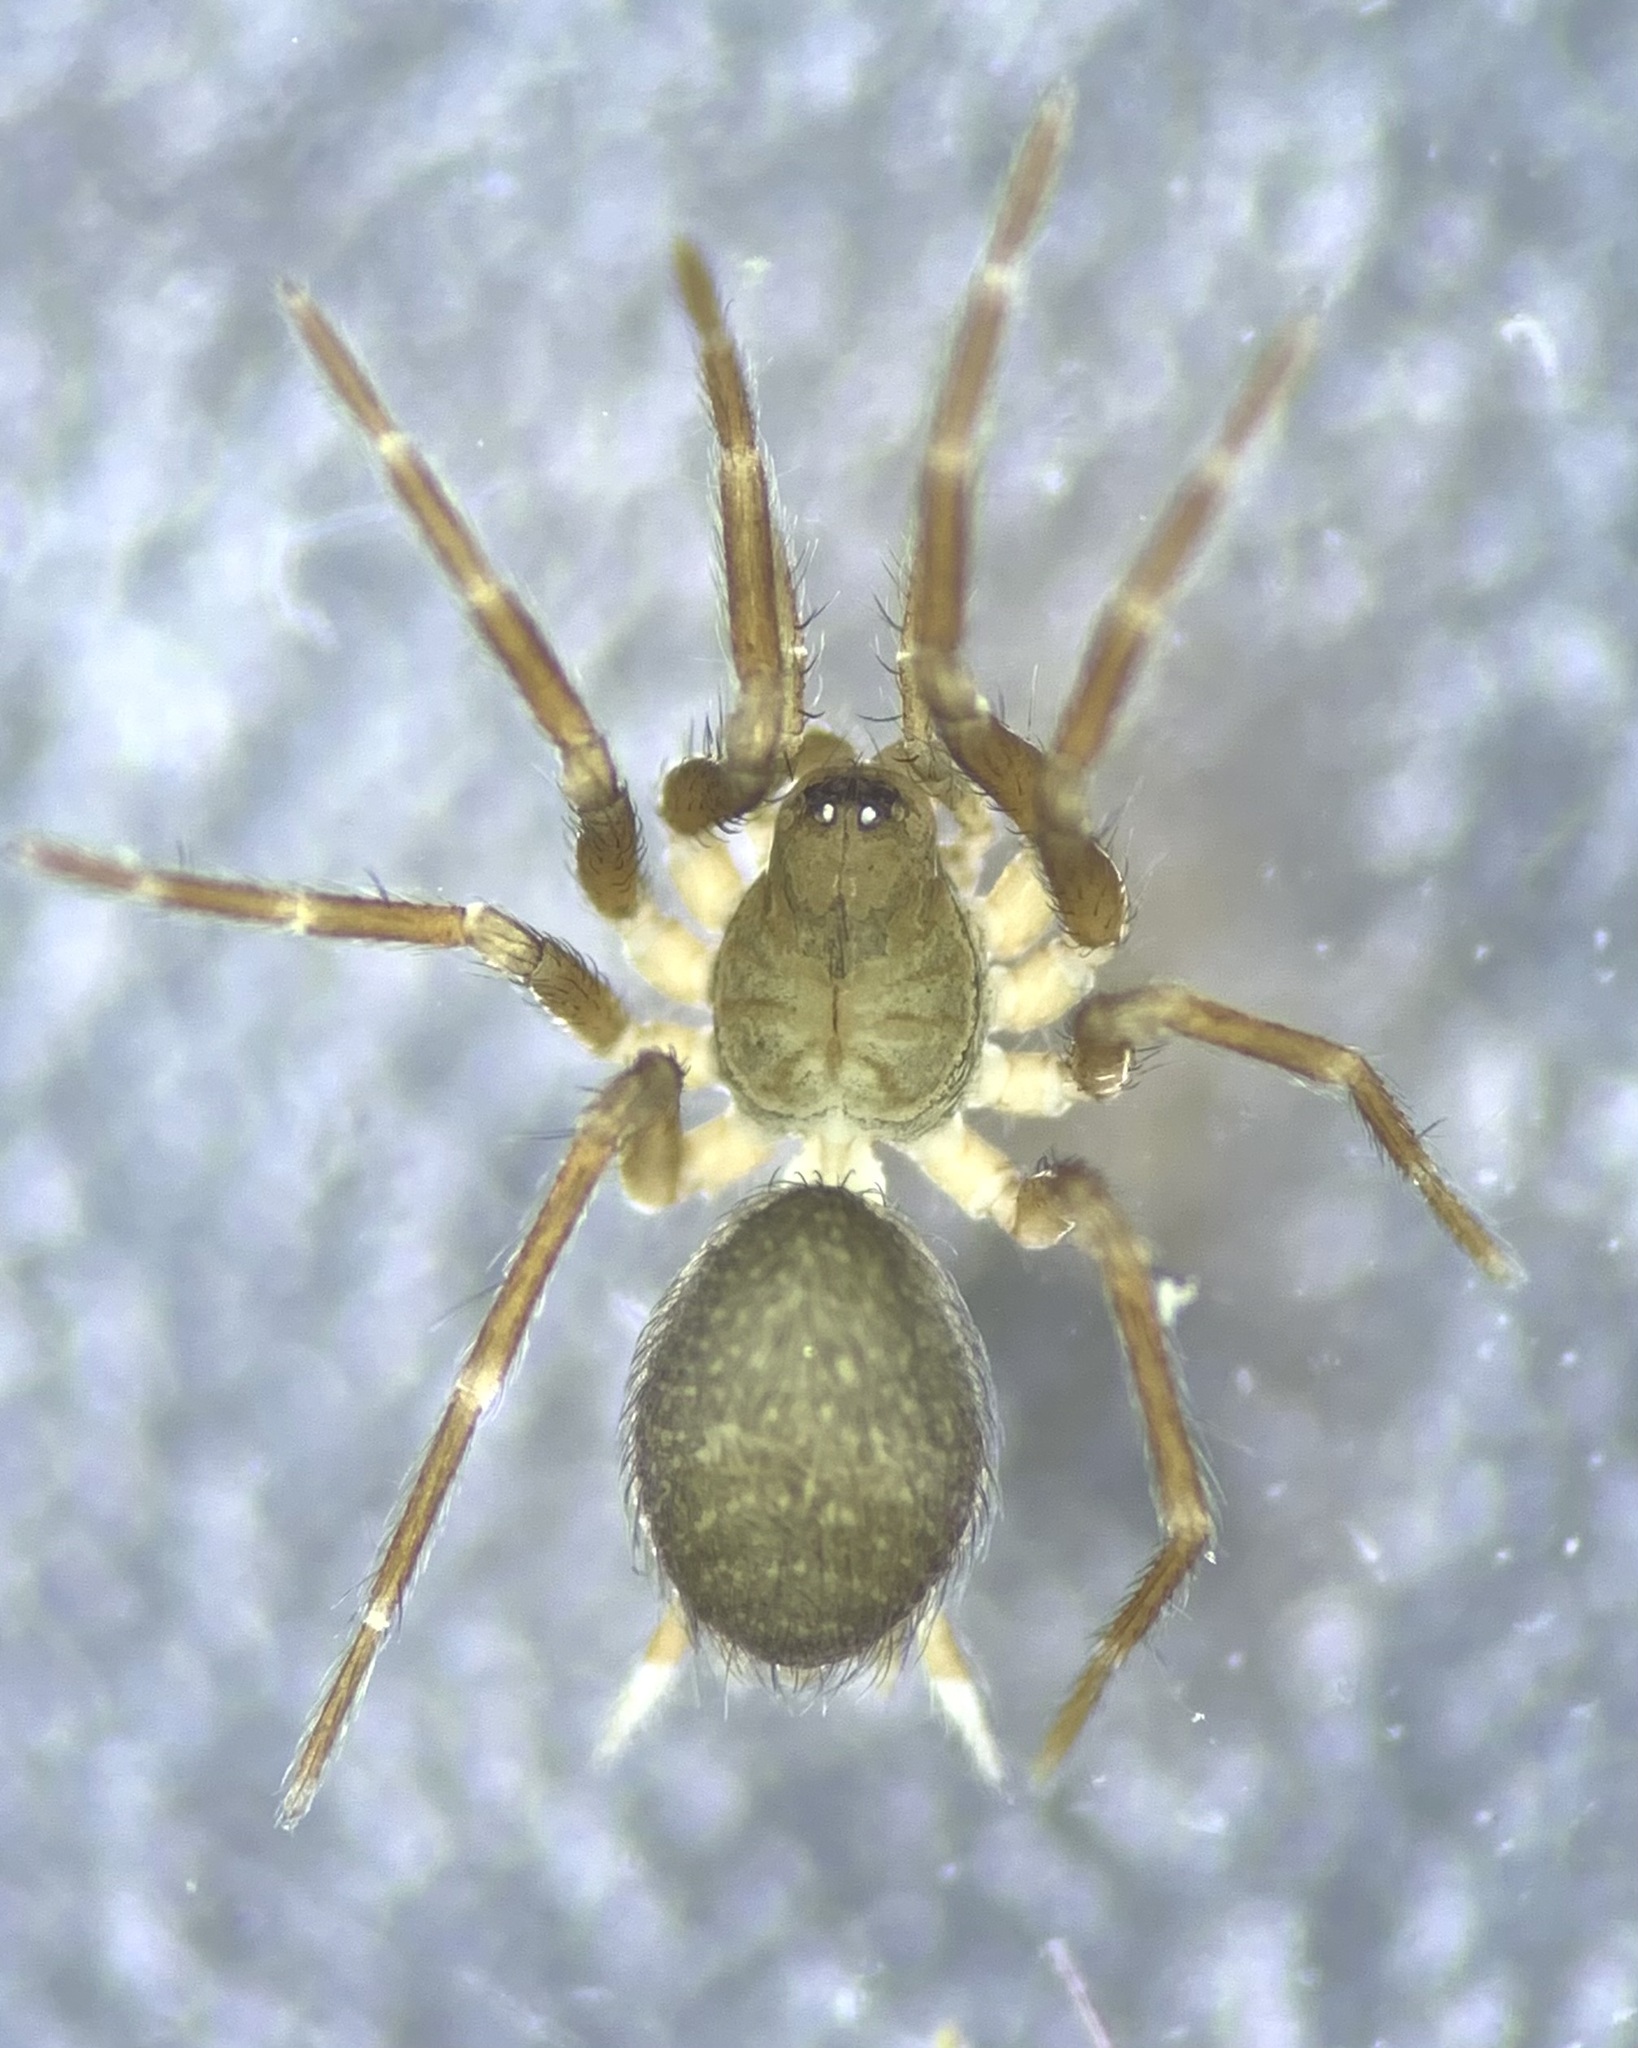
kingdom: Animalia
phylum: Arthropoda
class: Arachnida
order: Araneae
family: Hahniidae
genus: Iberina
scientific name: Iberina montana
